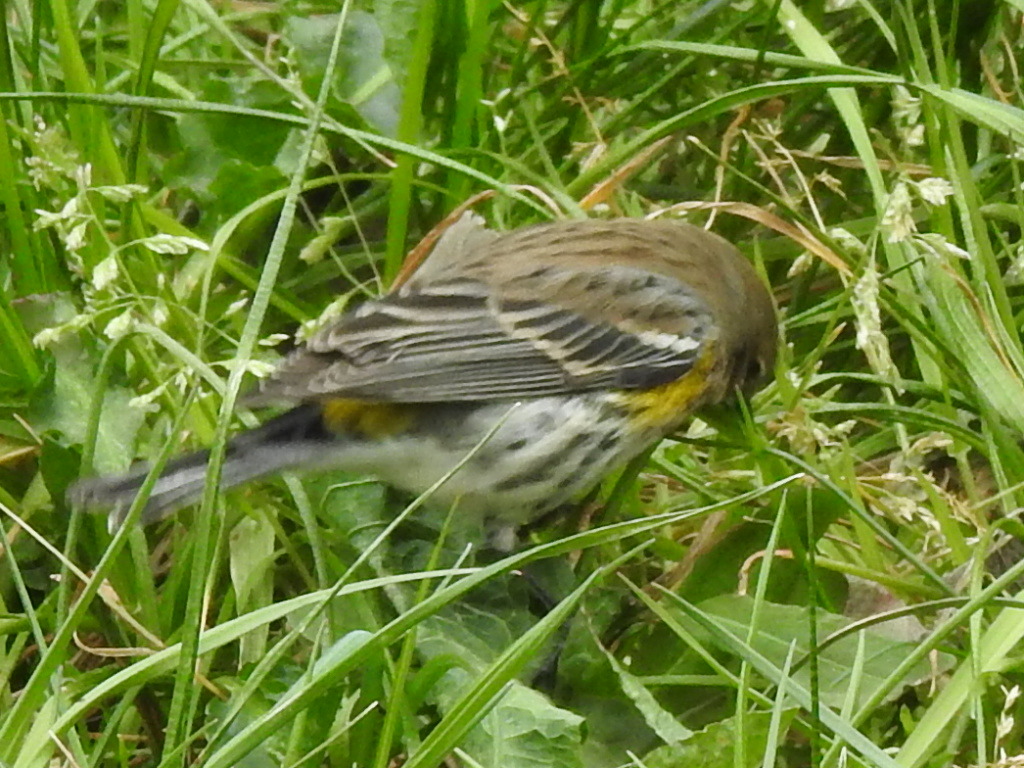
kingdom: Animalia
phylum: Chordata
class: Aves
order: Passeriformes
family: Parulidae
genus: Setophaga
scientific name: Setophaga coronata
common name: Myrtle warbler
